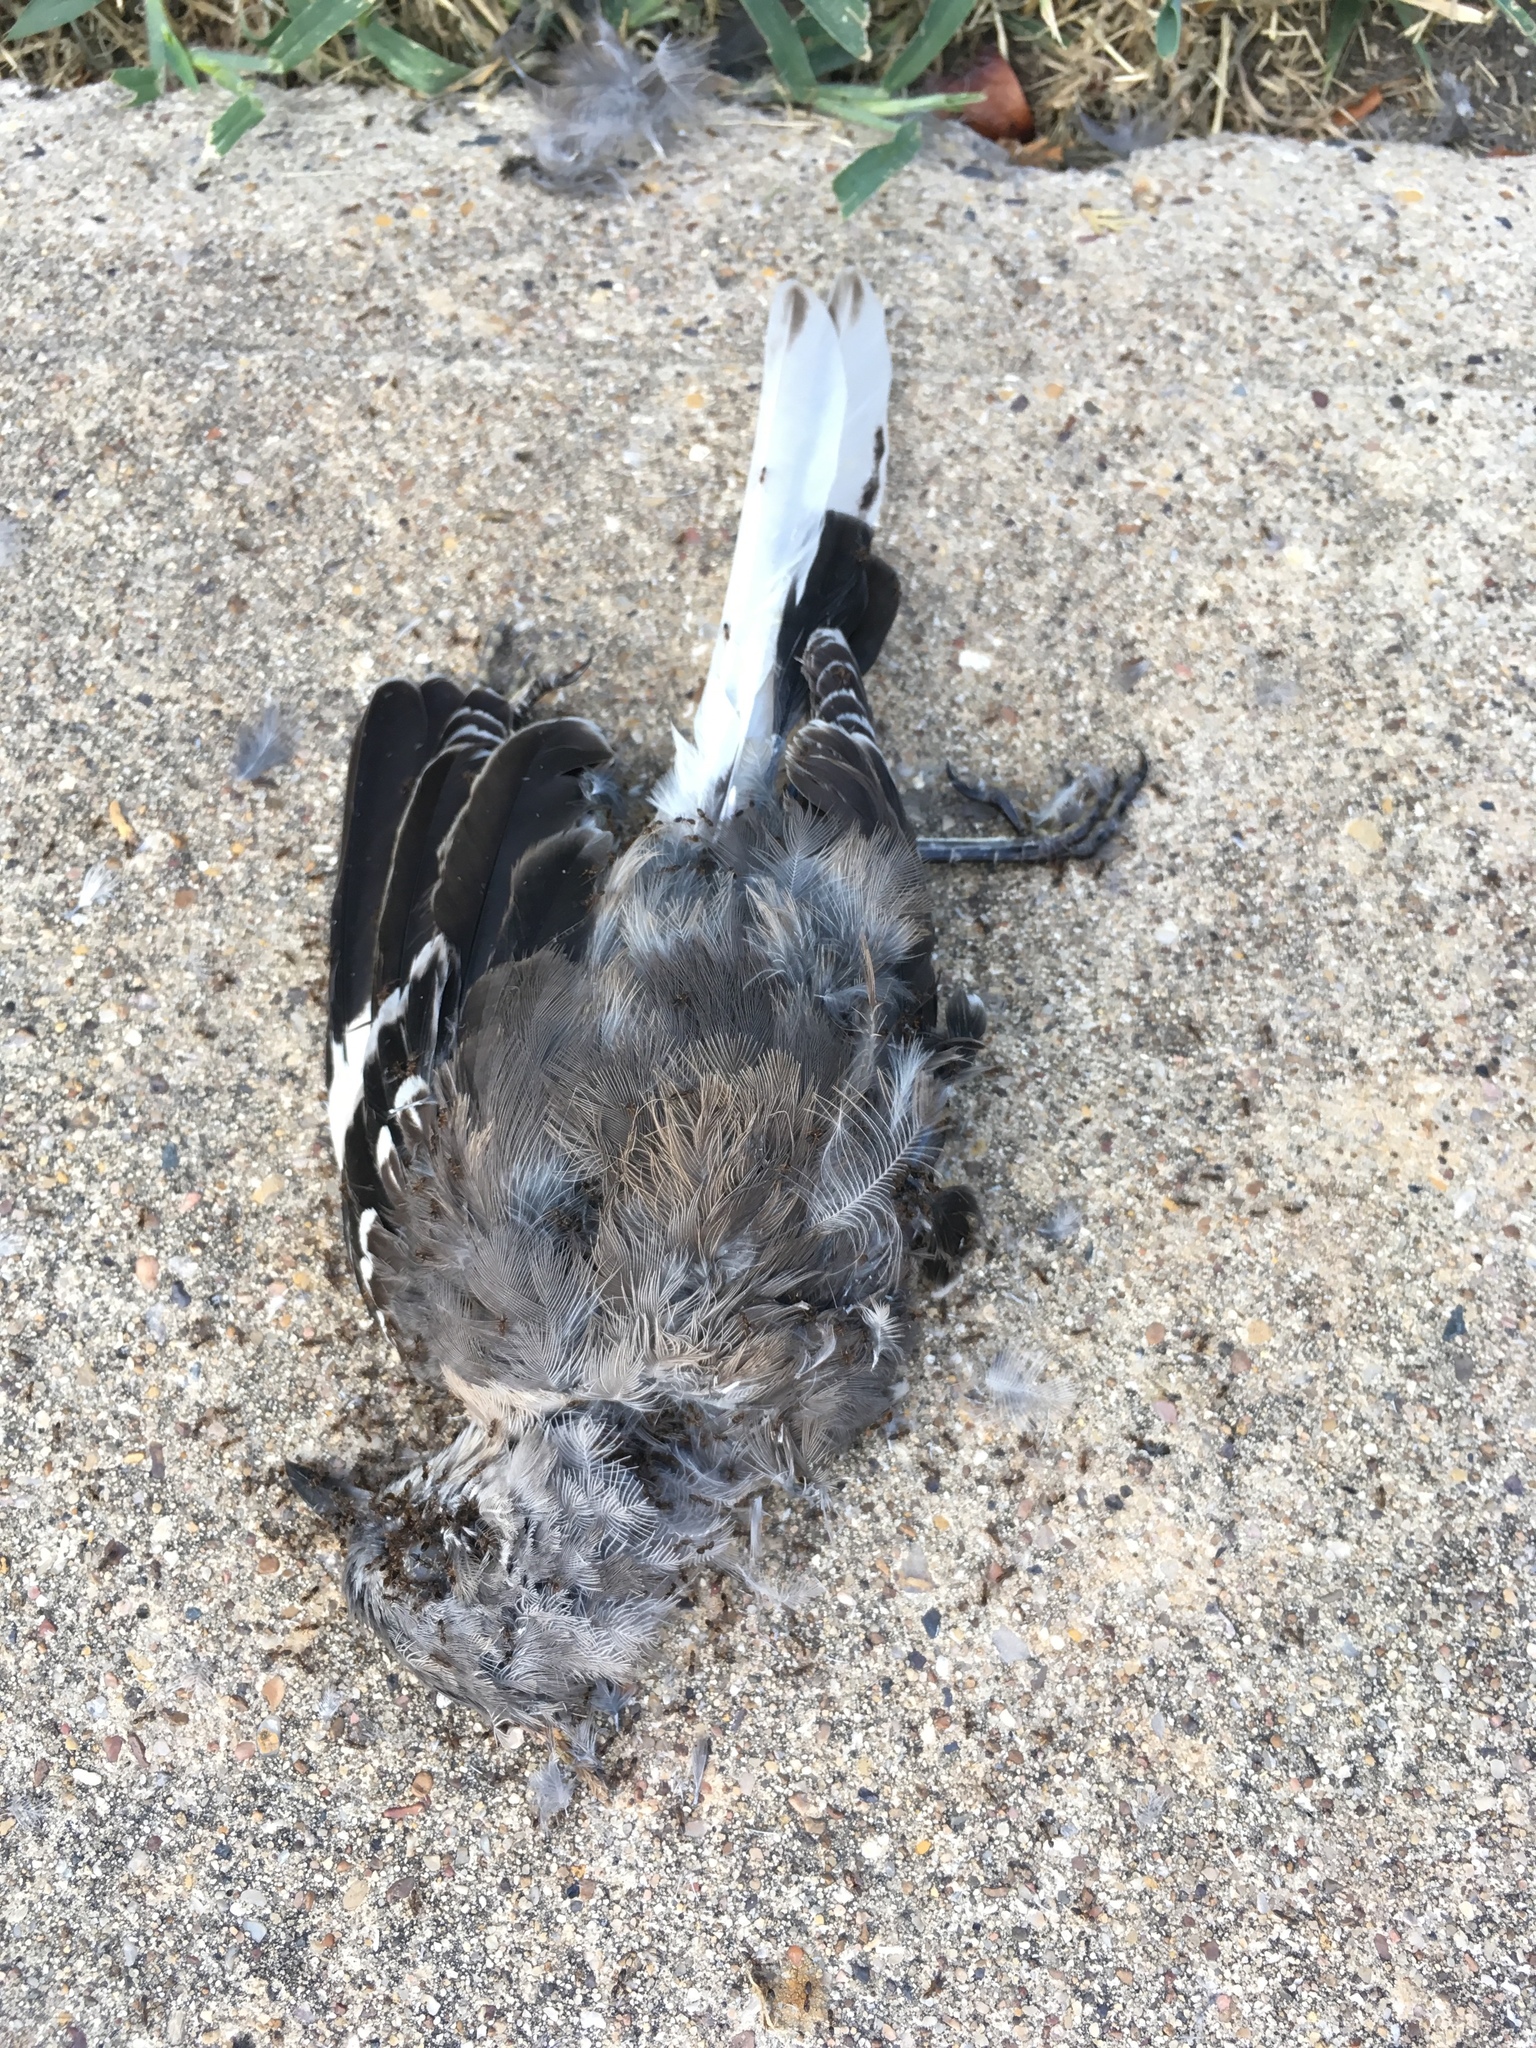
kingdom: Animalia
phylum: Chordata
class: Aves
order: Passeriformes
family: Mimidae
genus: Mimus
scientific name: Mimus polyglottos
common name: Northern mockingbird
